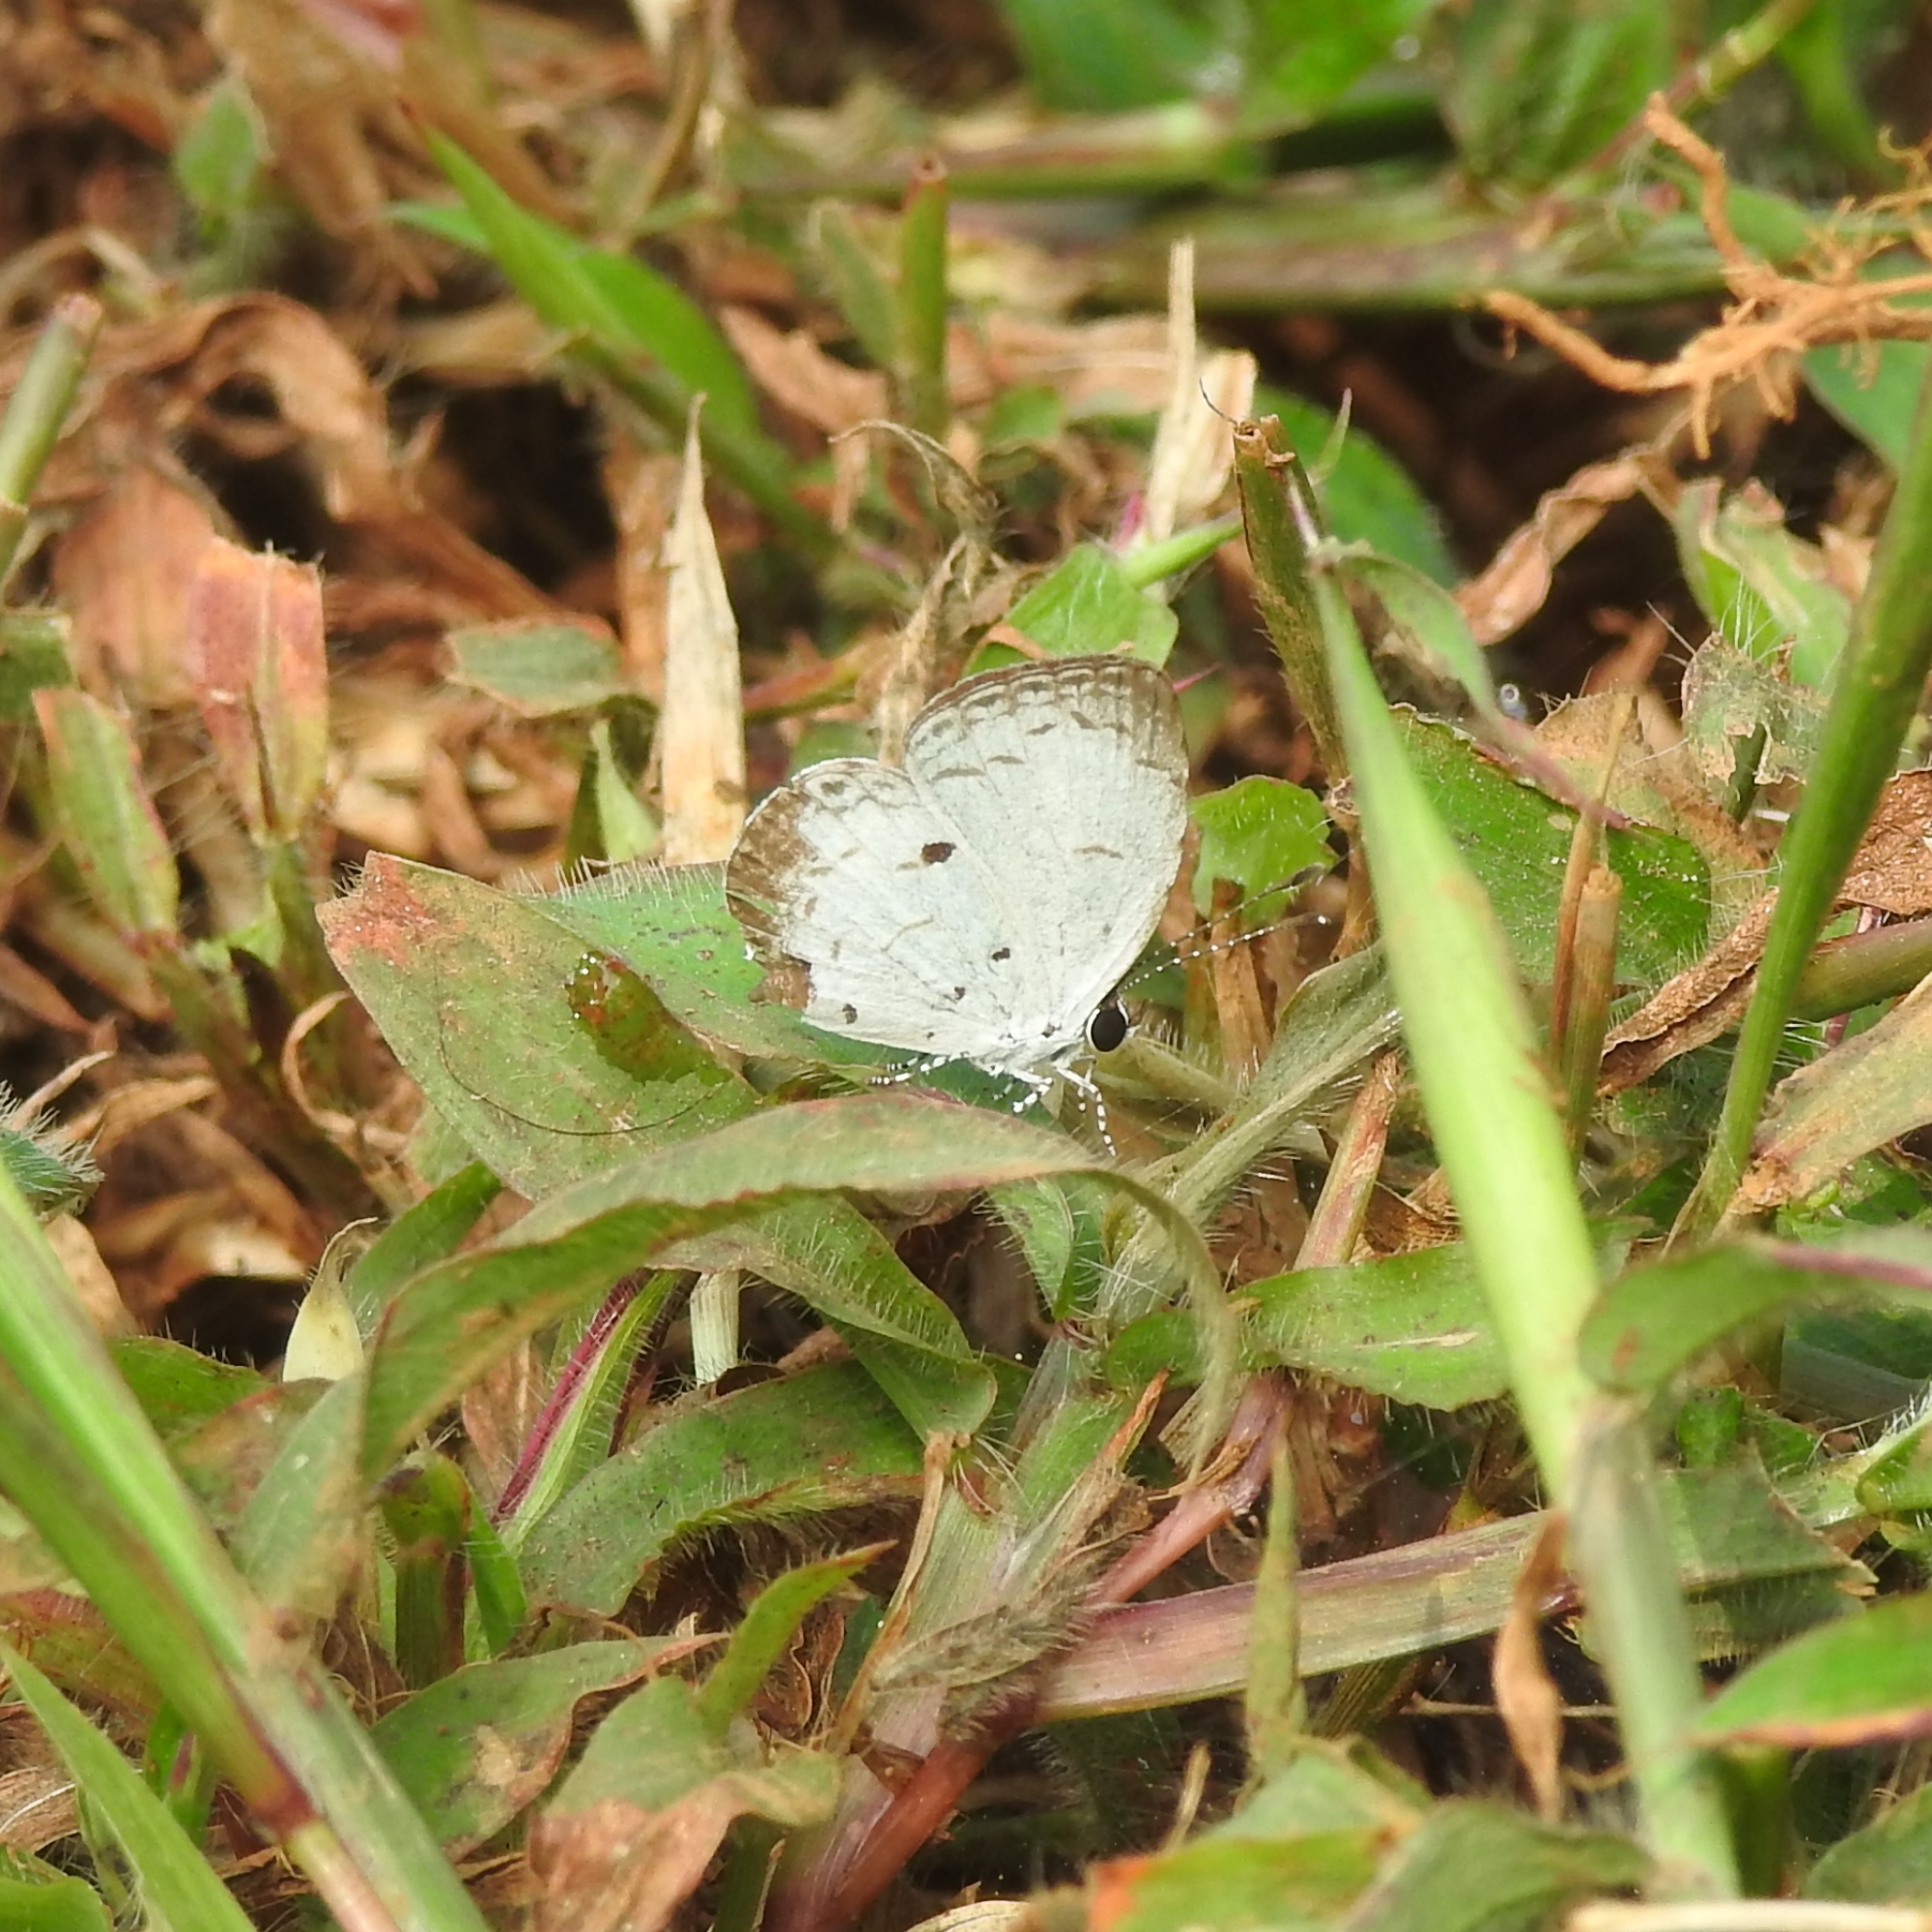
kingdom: Animalia
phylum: Arthropoda
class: Insecta
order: Lepidoptera
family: Lycaenidae
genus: Neopithecops
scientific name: Neopithecops zalmora
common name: Quaker
